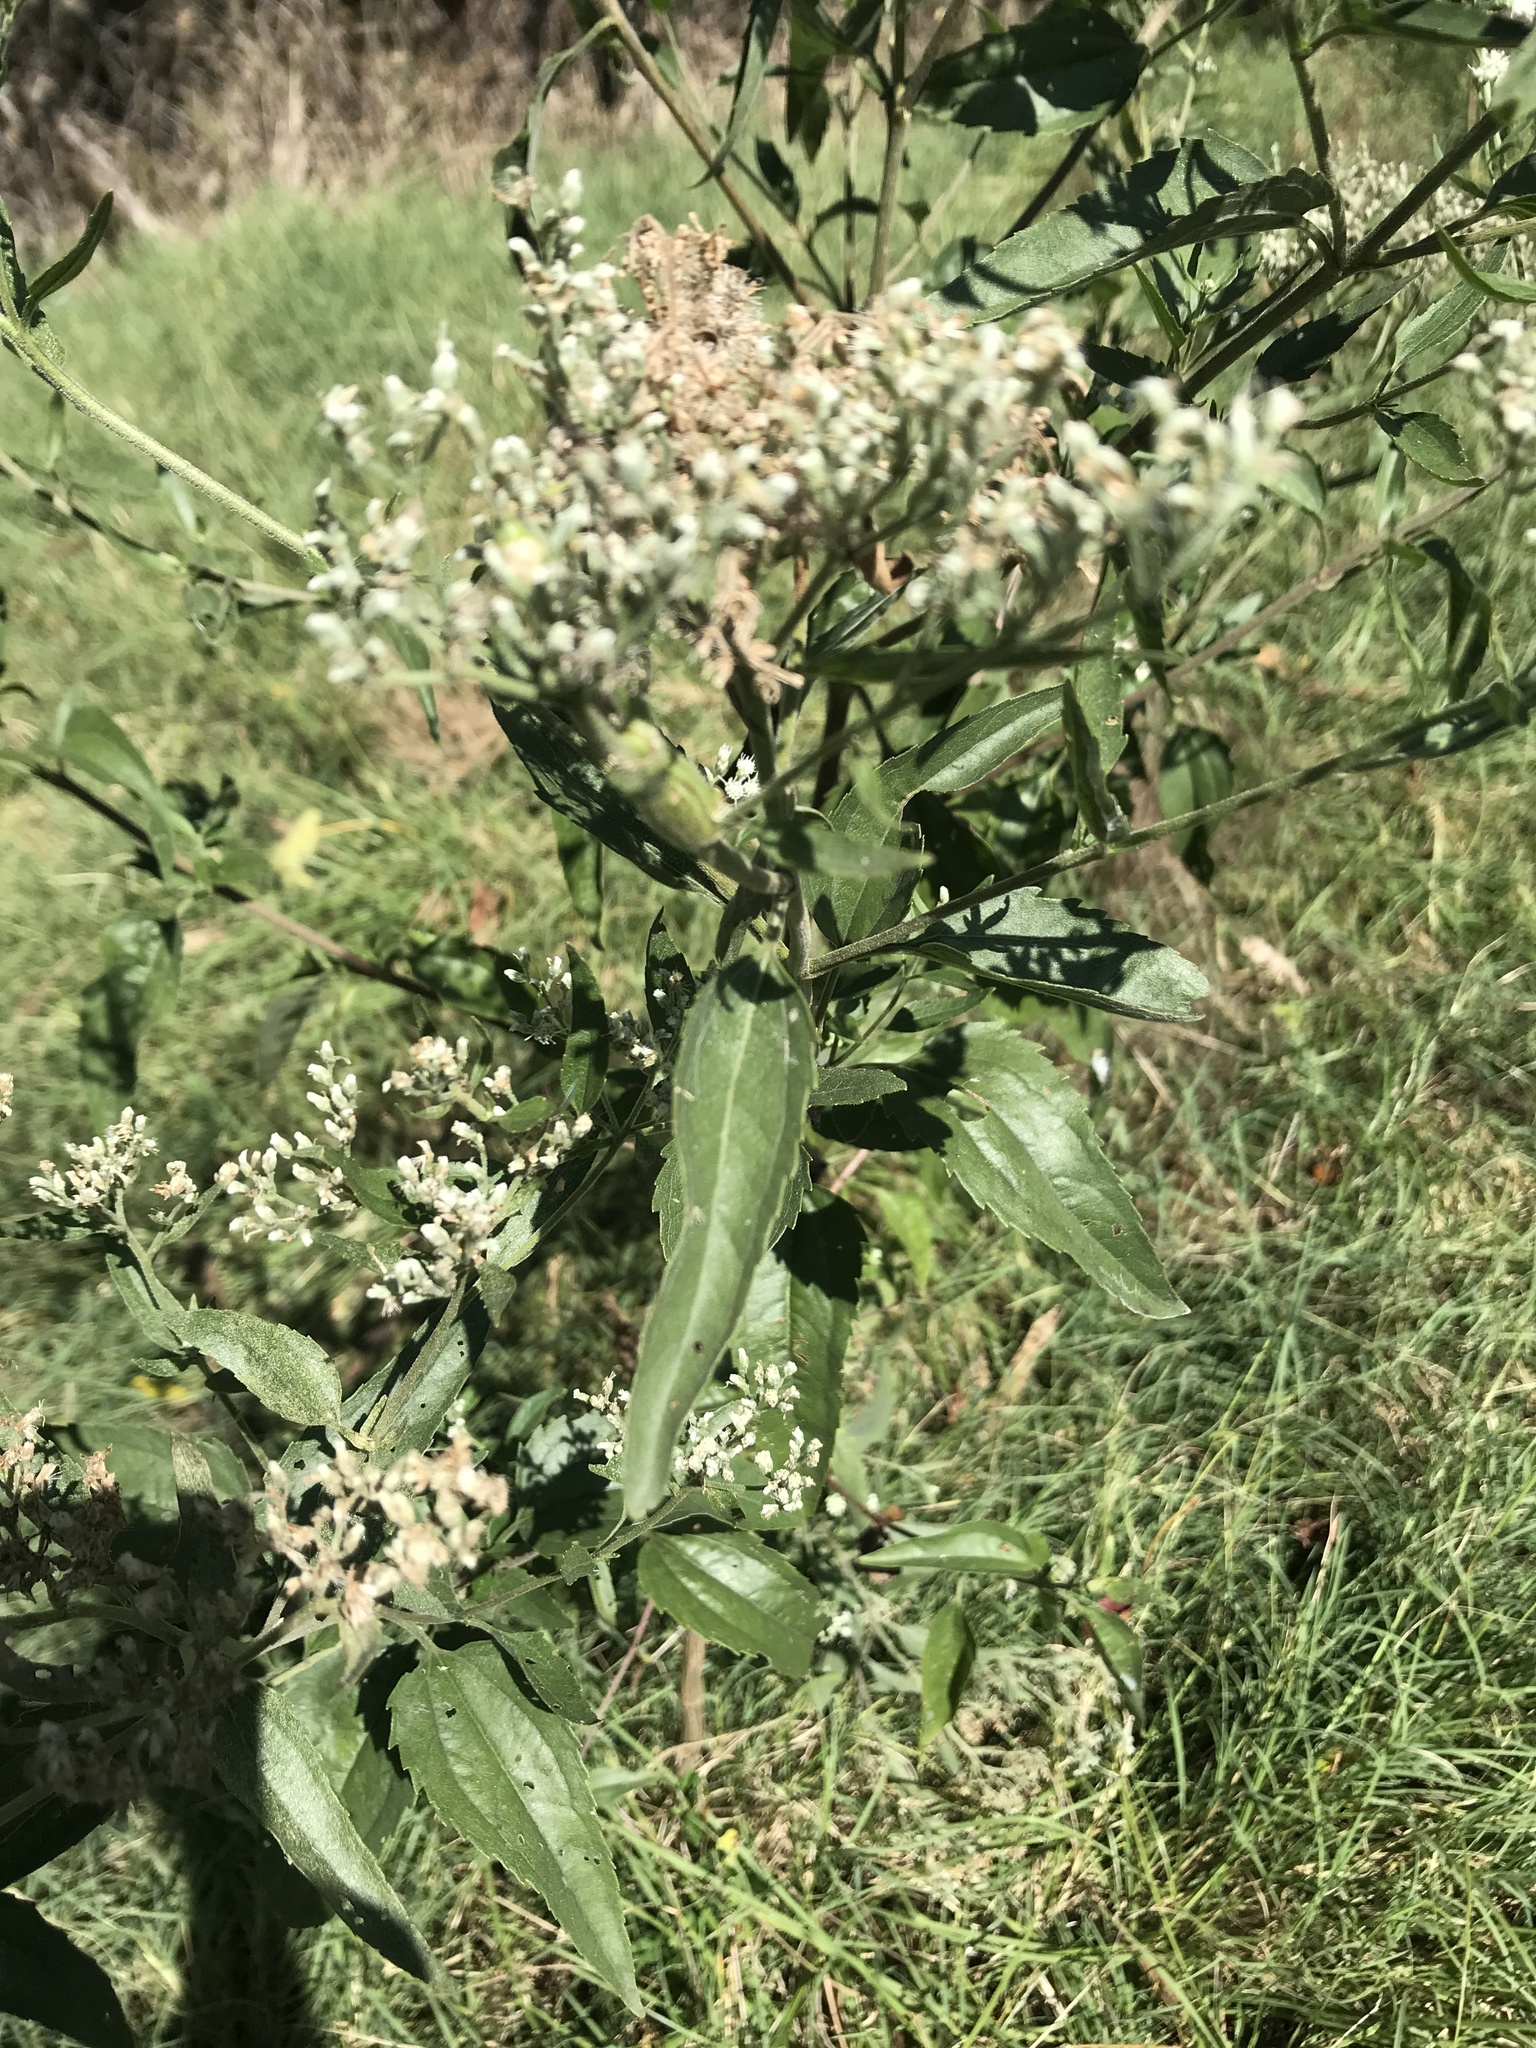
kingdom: Plantae
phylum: Tracheophyta
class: Magnoliopsida
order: Asterales
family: Asteraceae
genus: Eupatorium
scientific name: Eupatorium serotinum
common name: Late boneset
